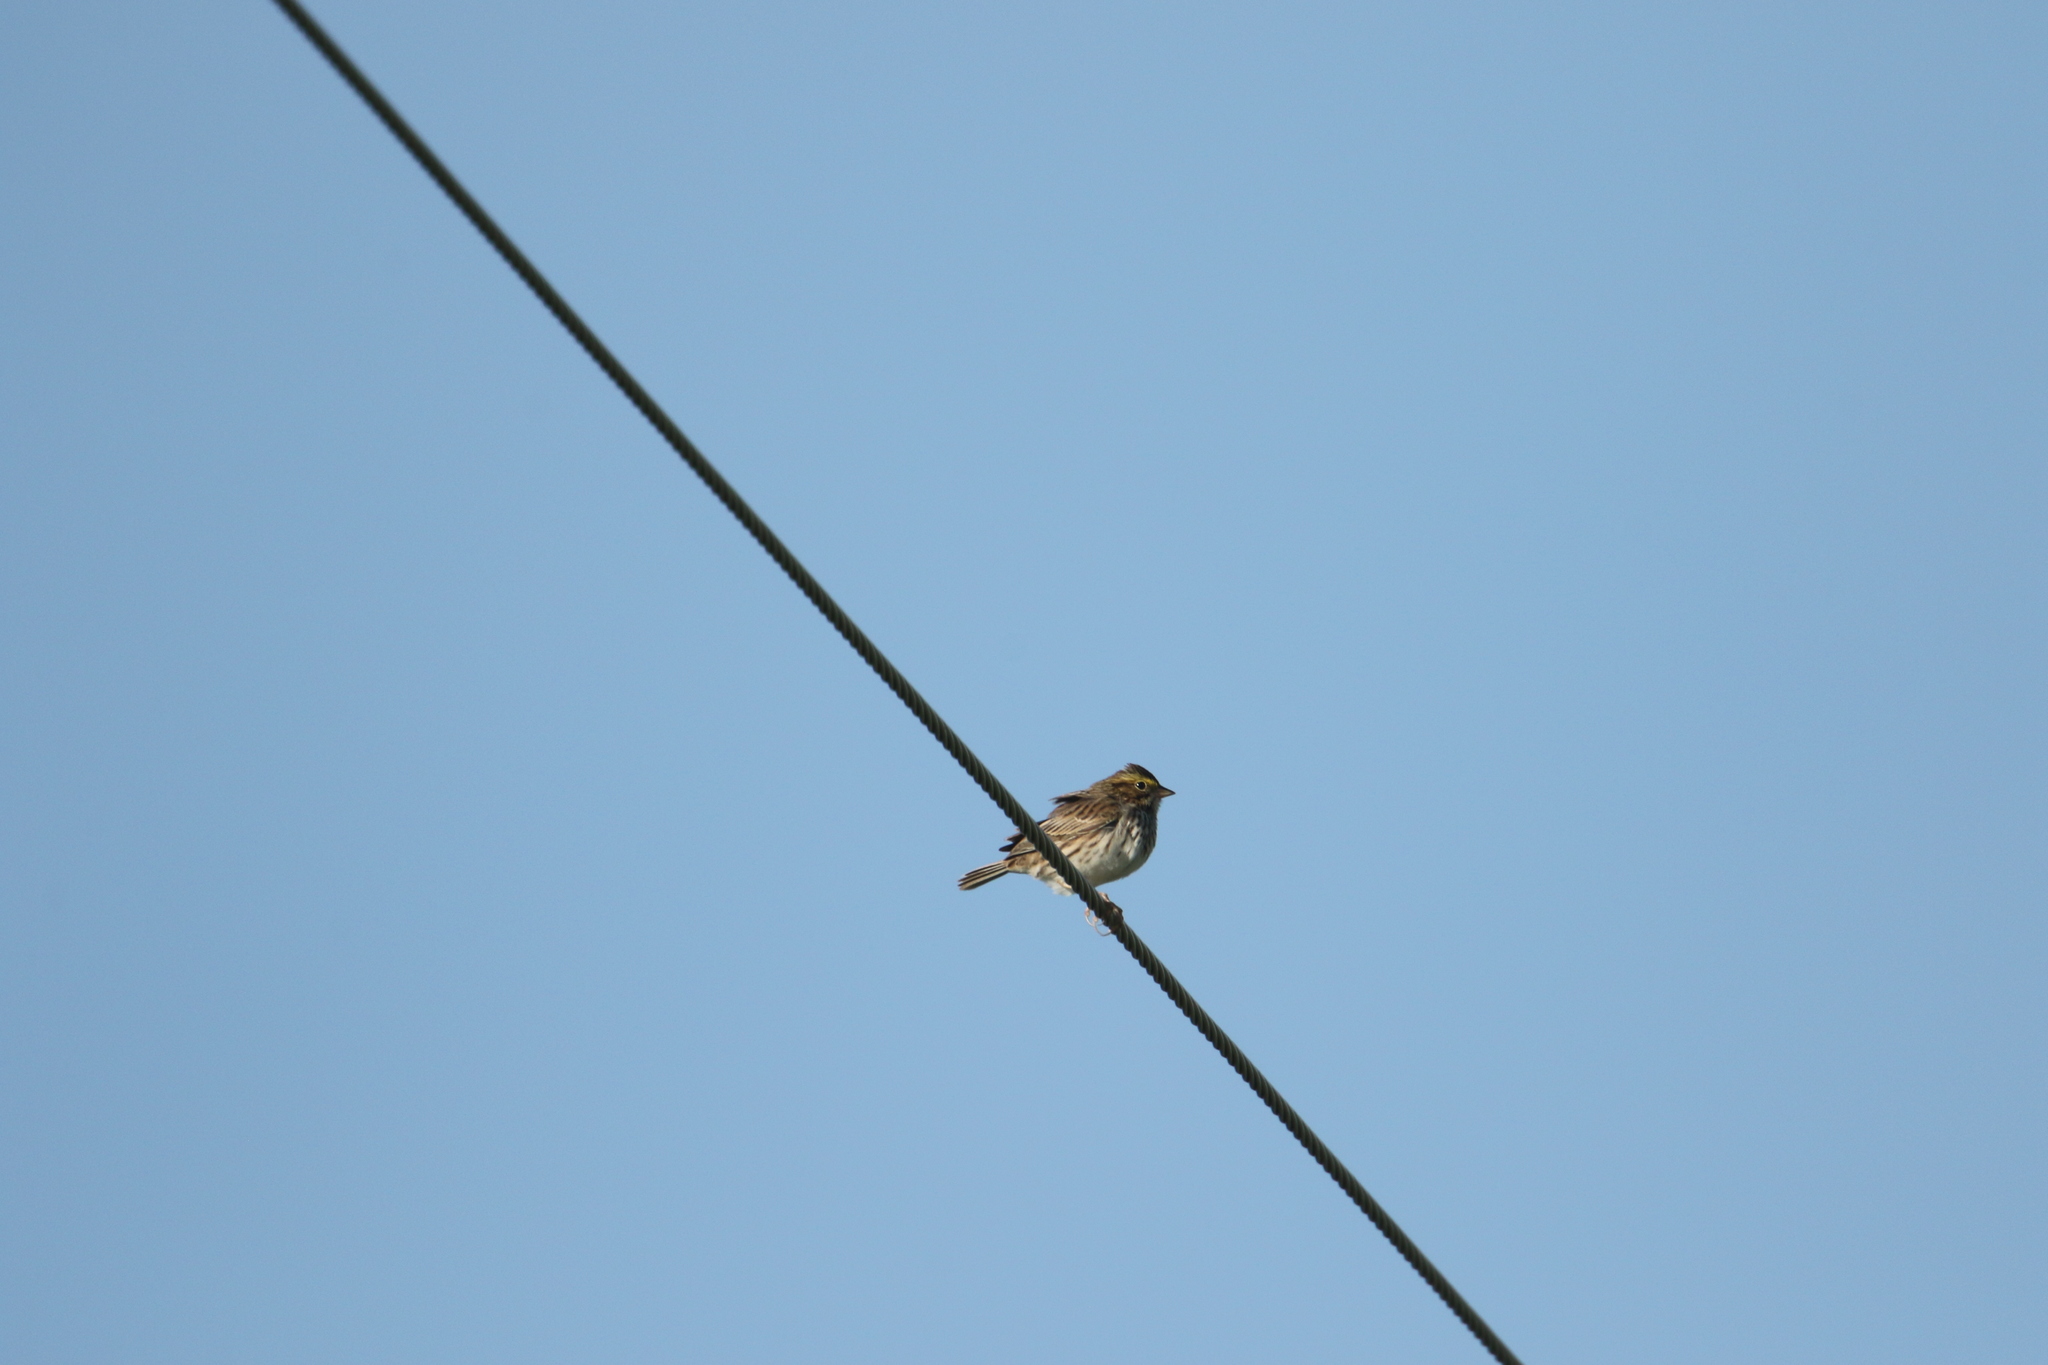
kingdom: Animalia
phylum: Chordata
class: Aves
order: Passeriformes
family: Passerellidae
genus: Passerculus
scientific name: Passerculus sandwichensis
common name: Savannah sparrow
